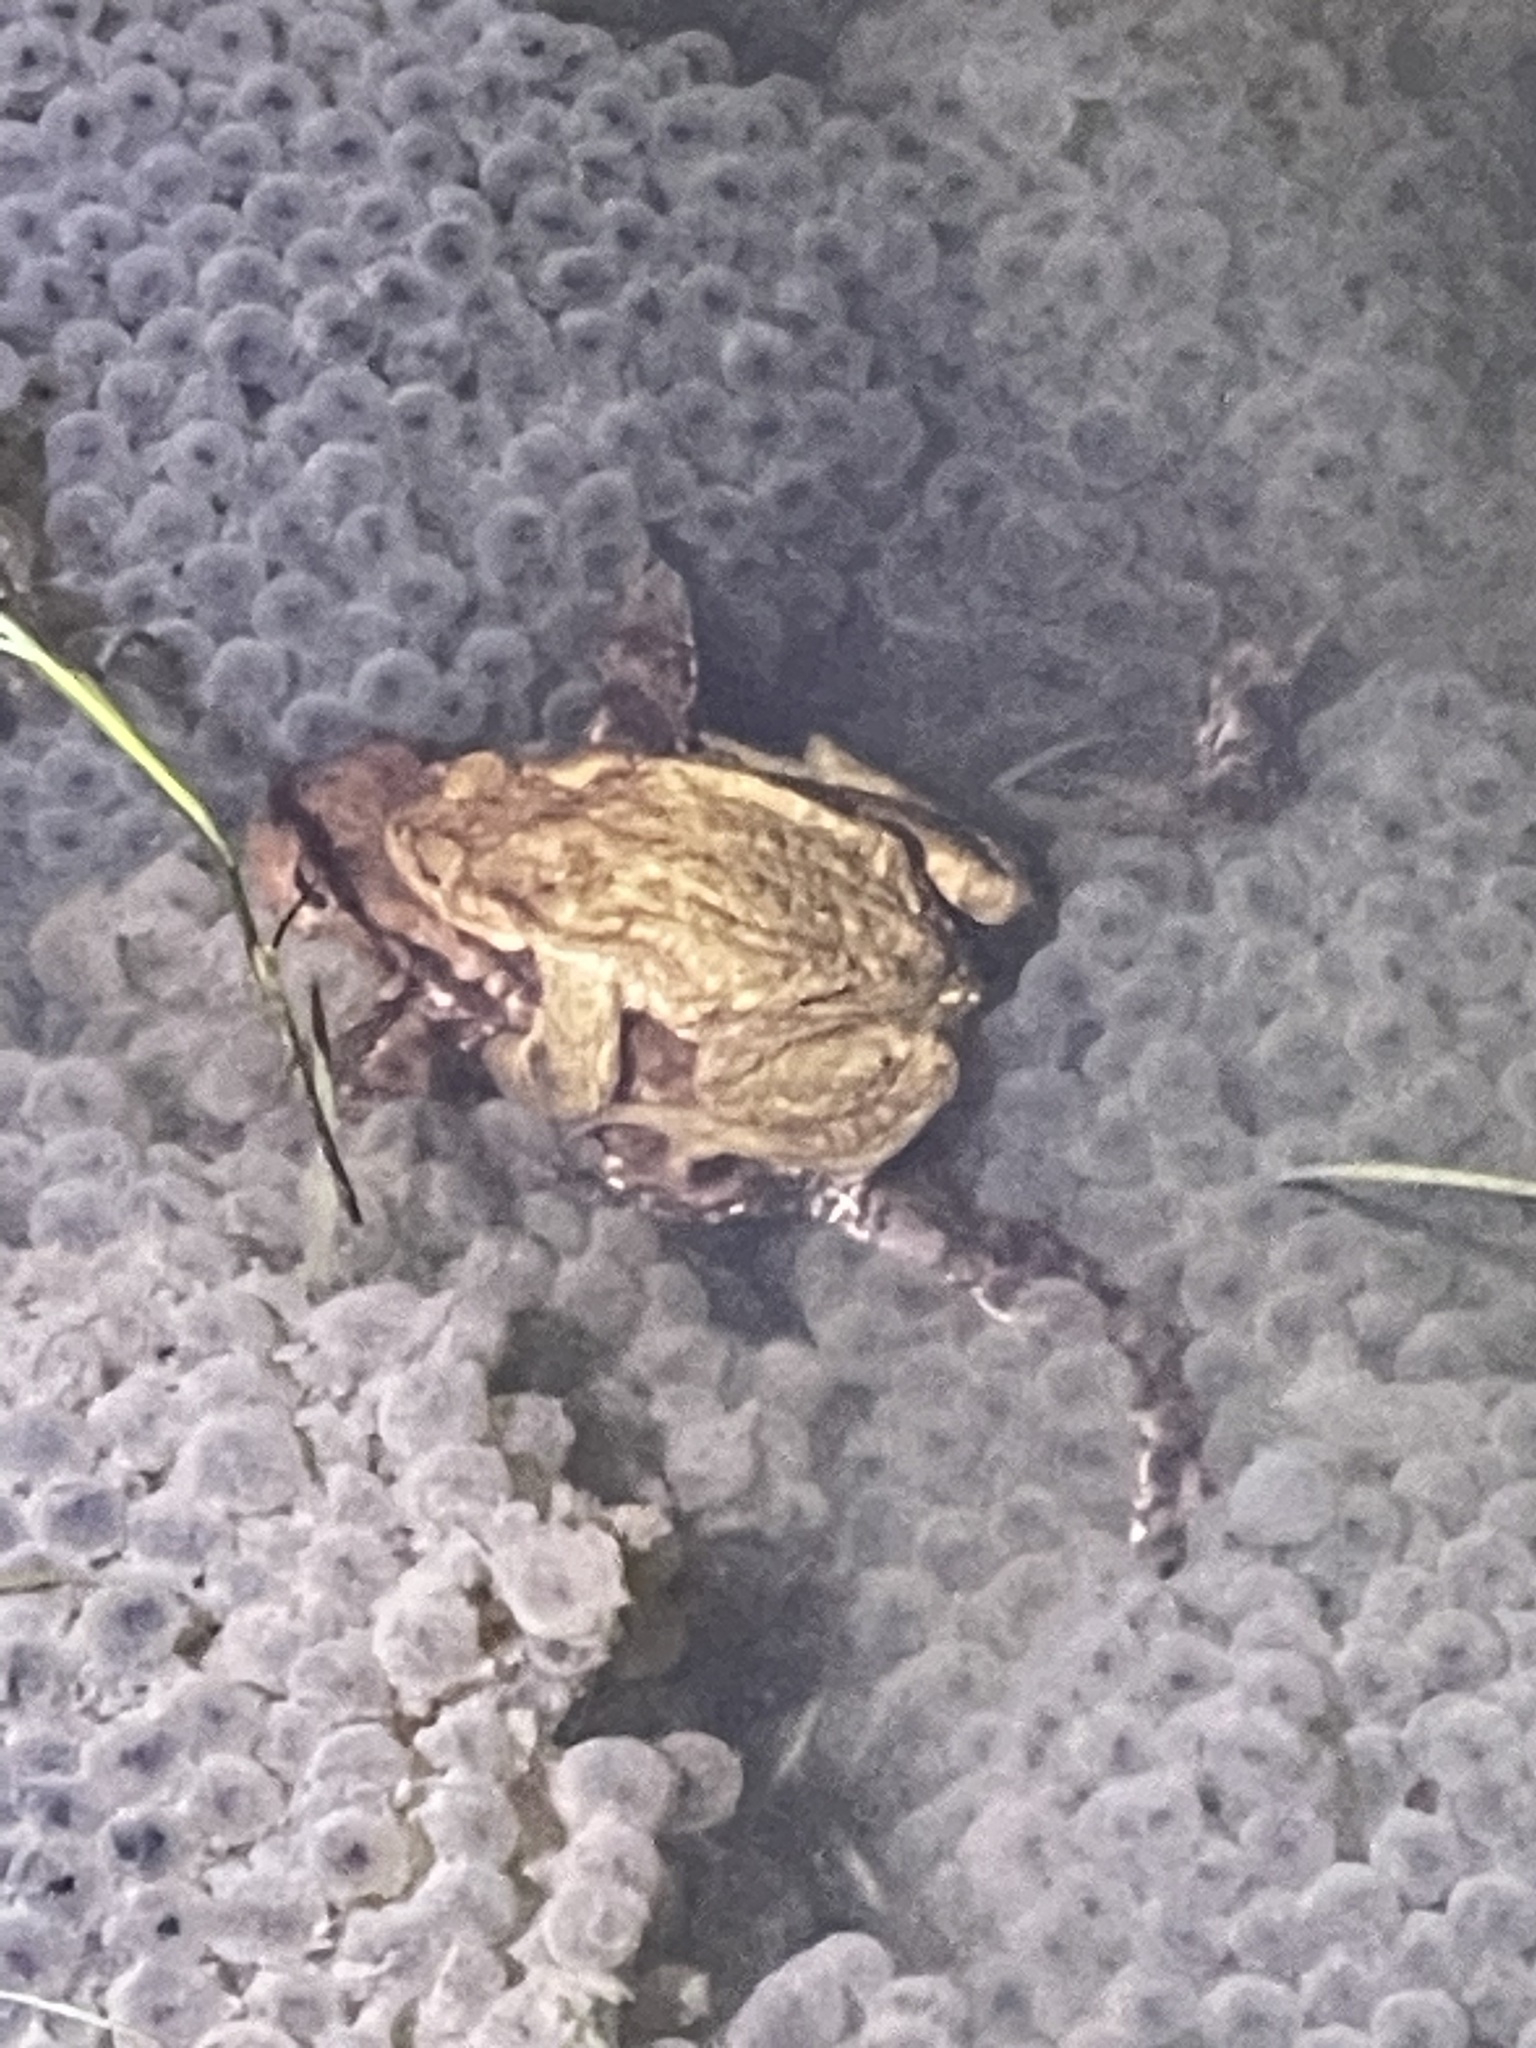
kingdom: Animalia
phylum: Chordata
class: Amphibia
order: Anura
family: Bufonidae
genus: Bufo
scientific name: Bufo bufo
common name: Common toad
